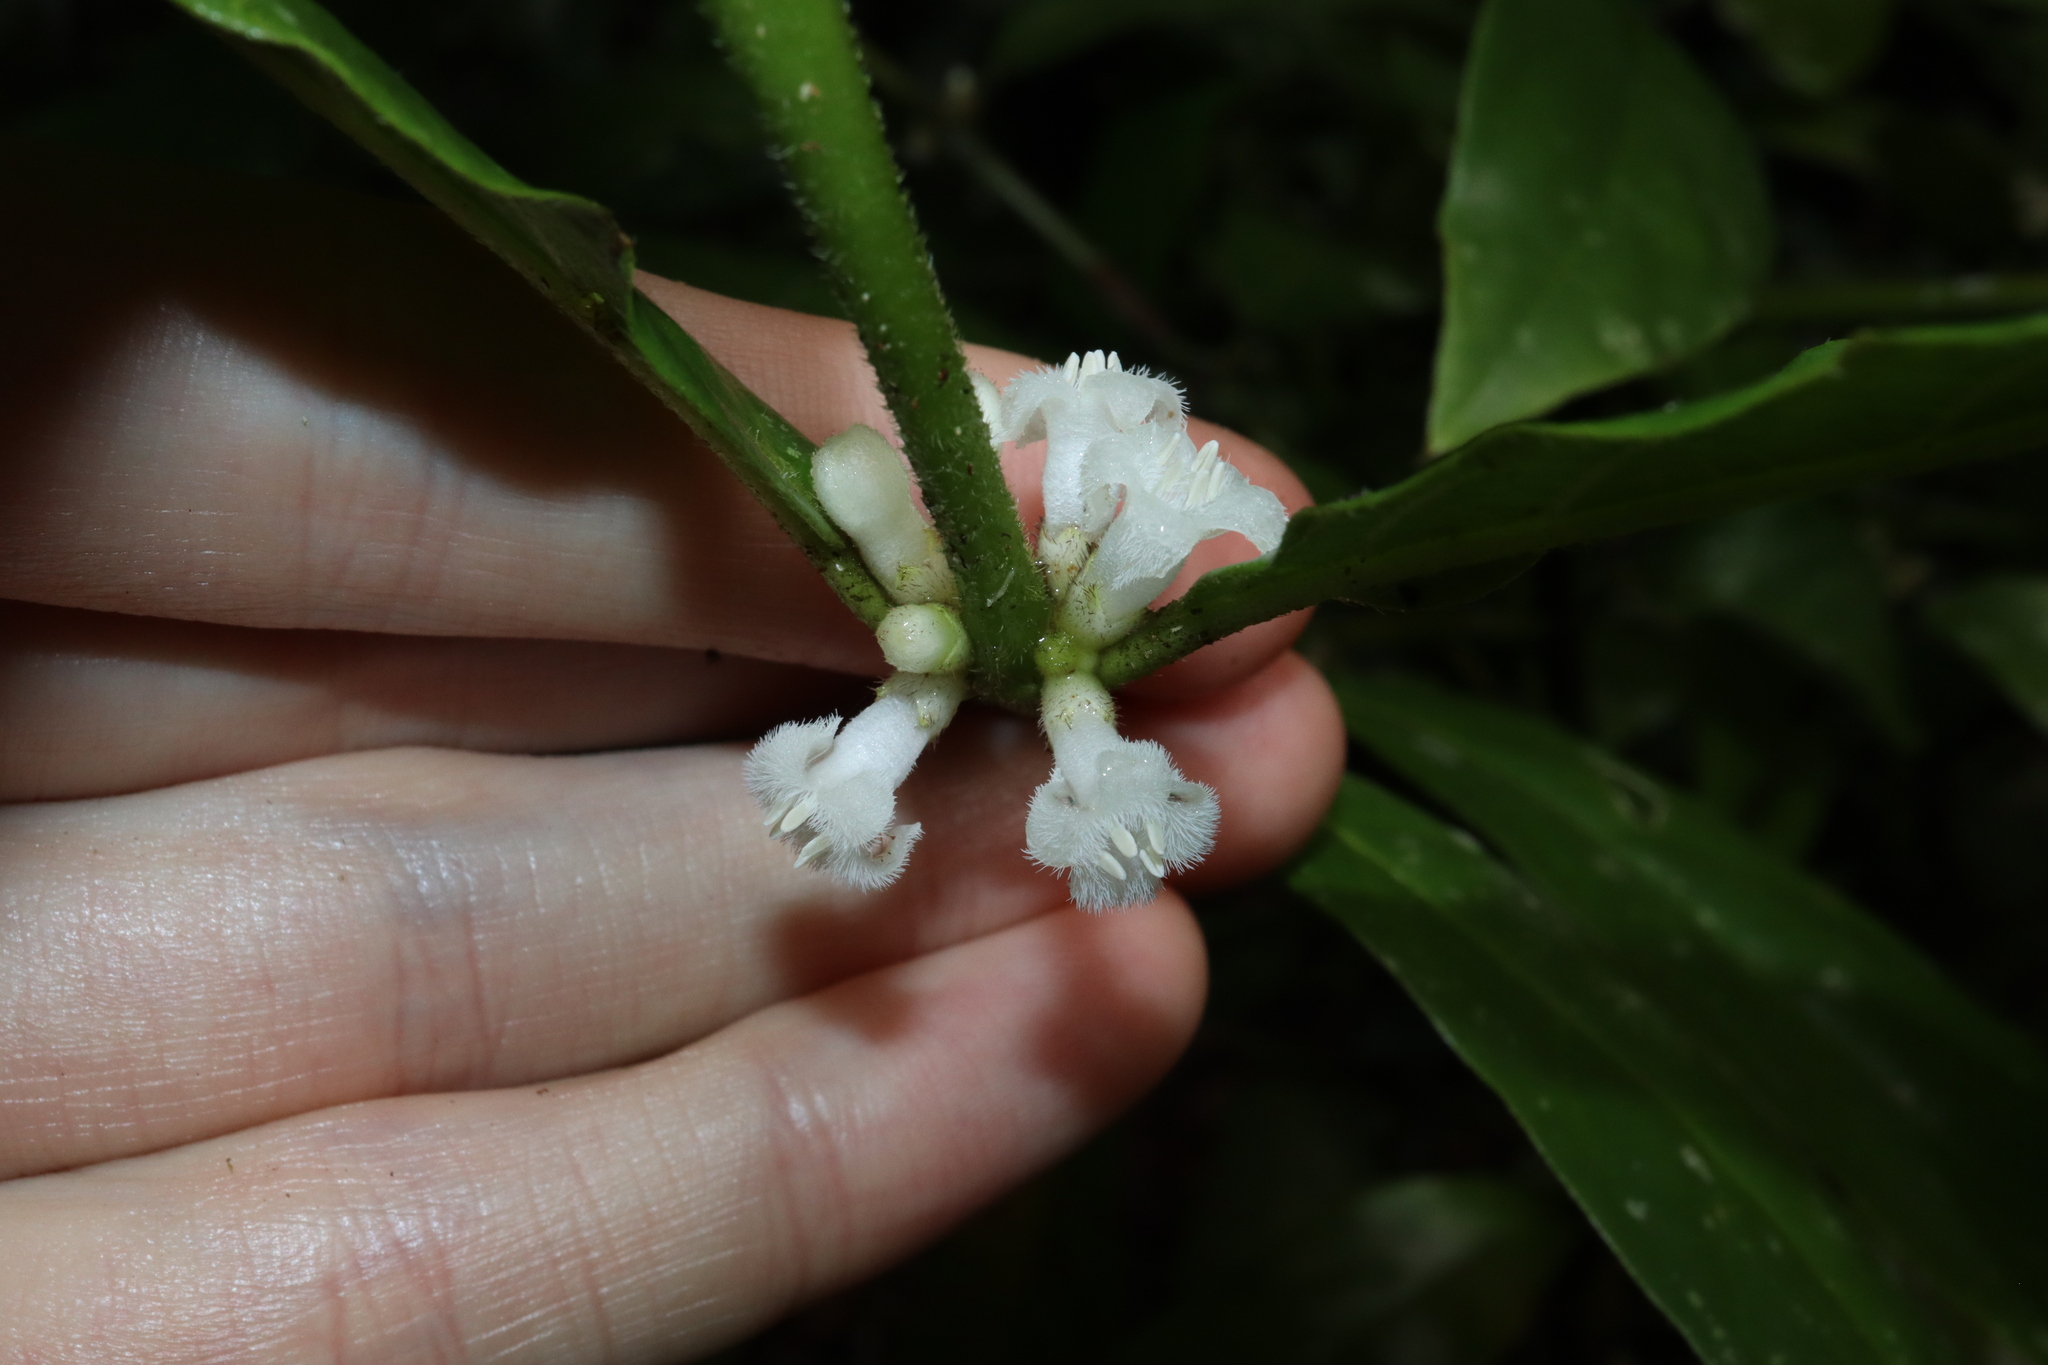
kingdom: Plantae
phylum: Tracheophyta
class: Magnoliopsida
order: Gentianales
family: Rubiaceae
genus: Lasianthus
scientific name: Lasianthus chlorocarpus
